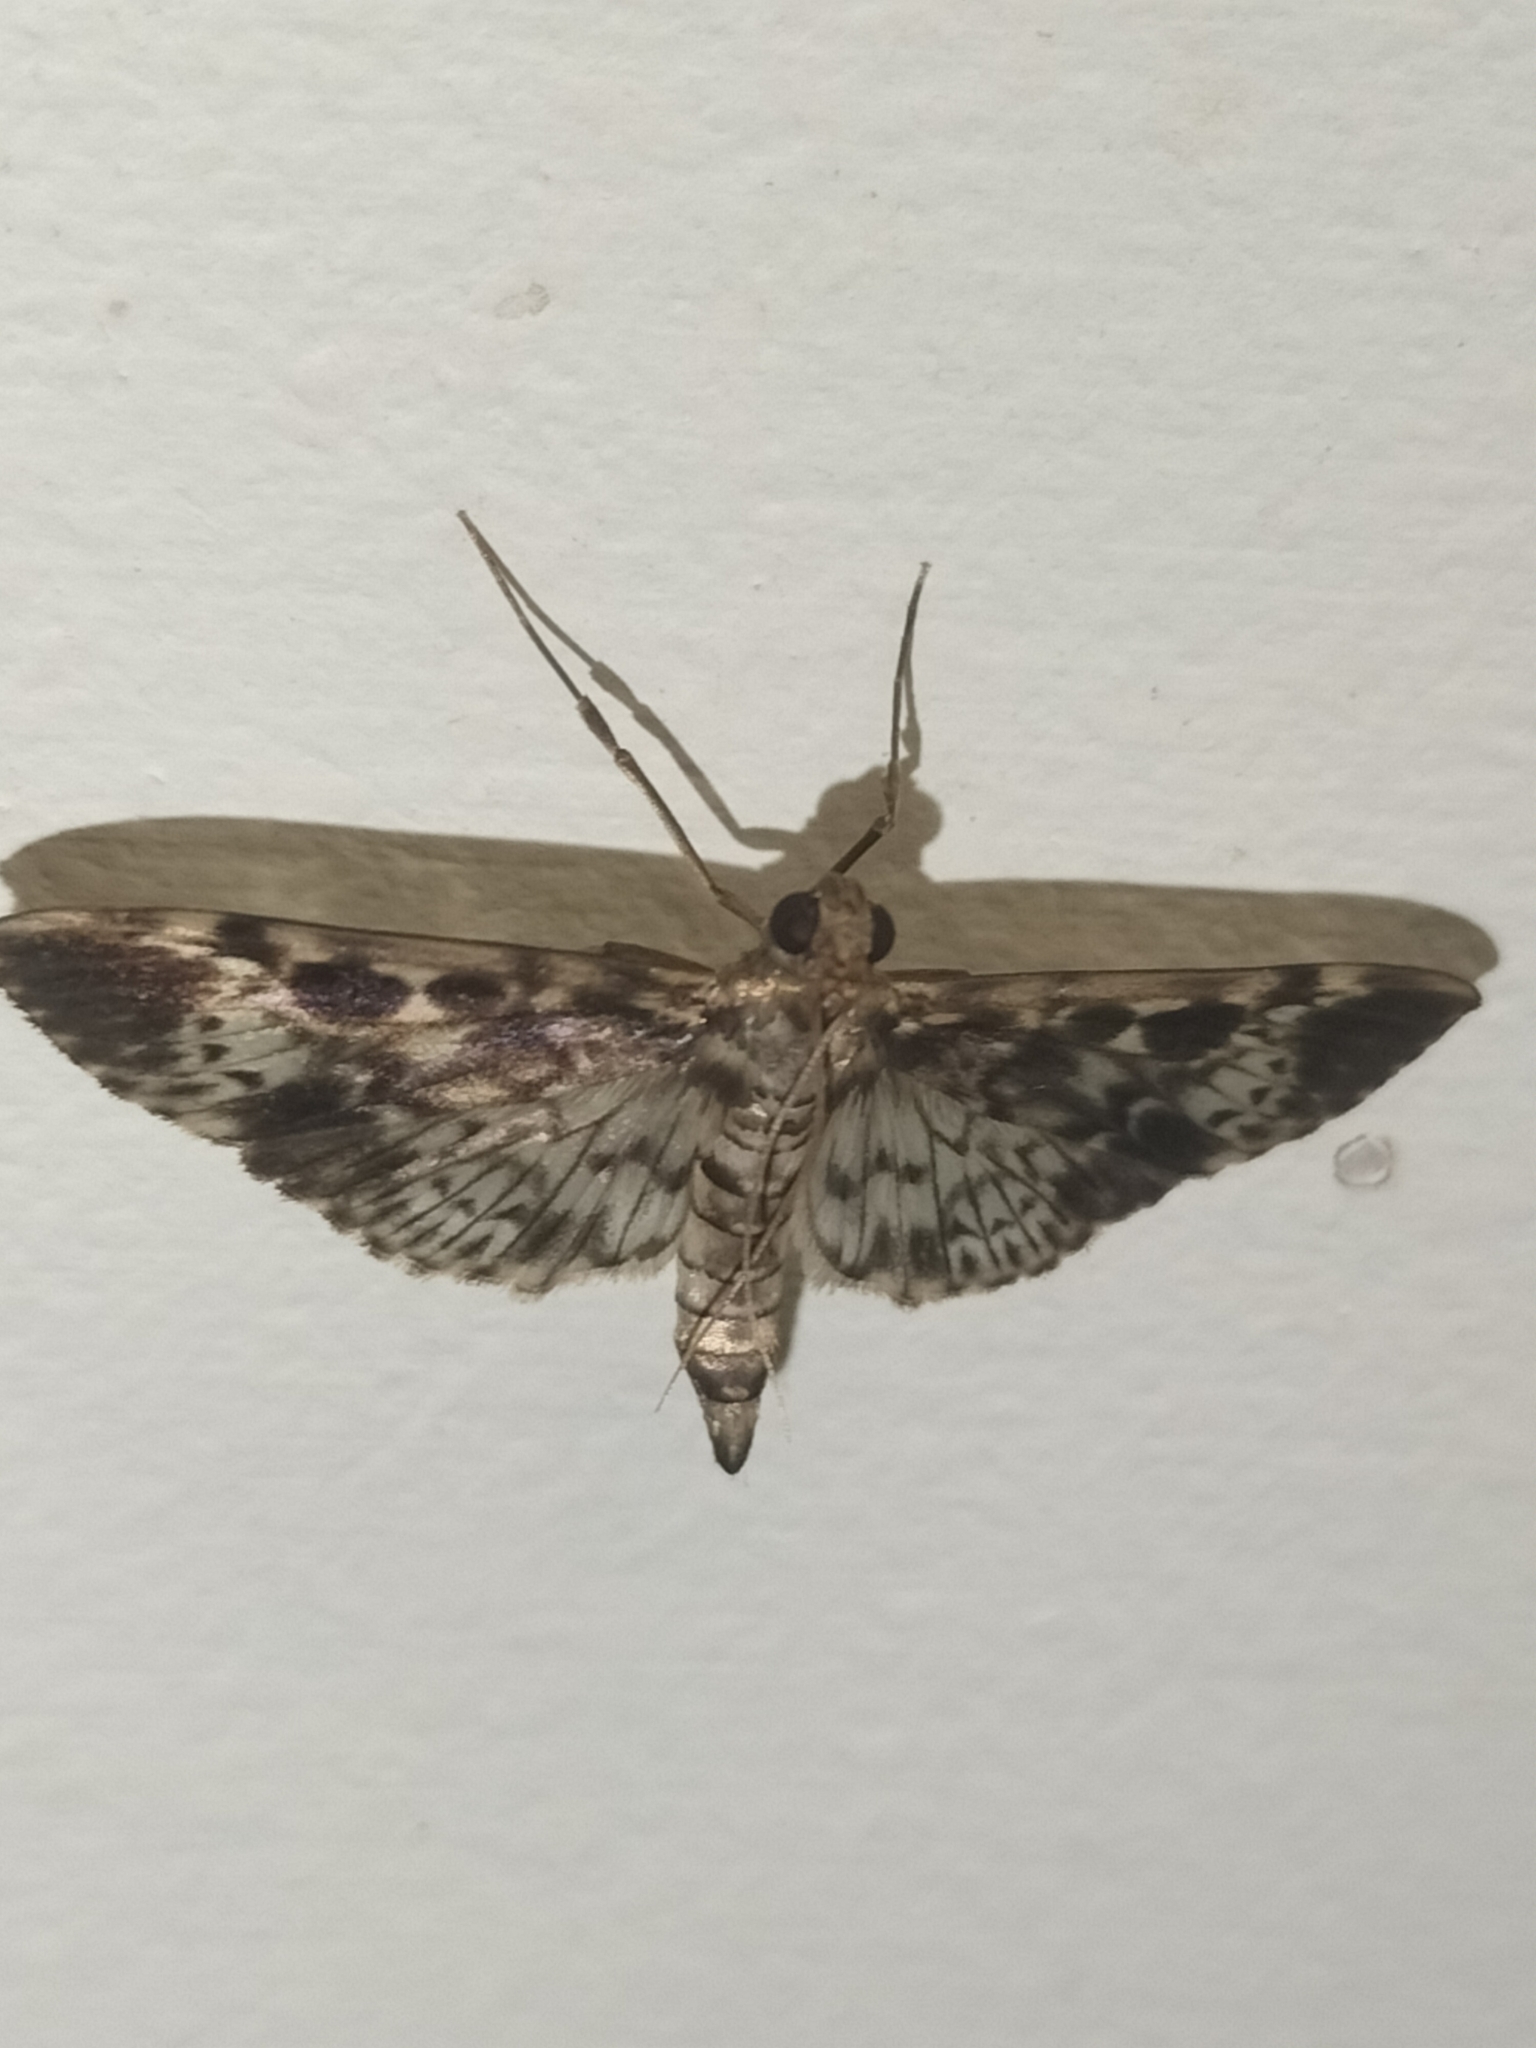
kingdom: Animalia
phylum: Arthropoda
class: Insecta
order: Lepidoptera
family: Crambidae
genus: Samea
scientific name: Samea multiplicalis
